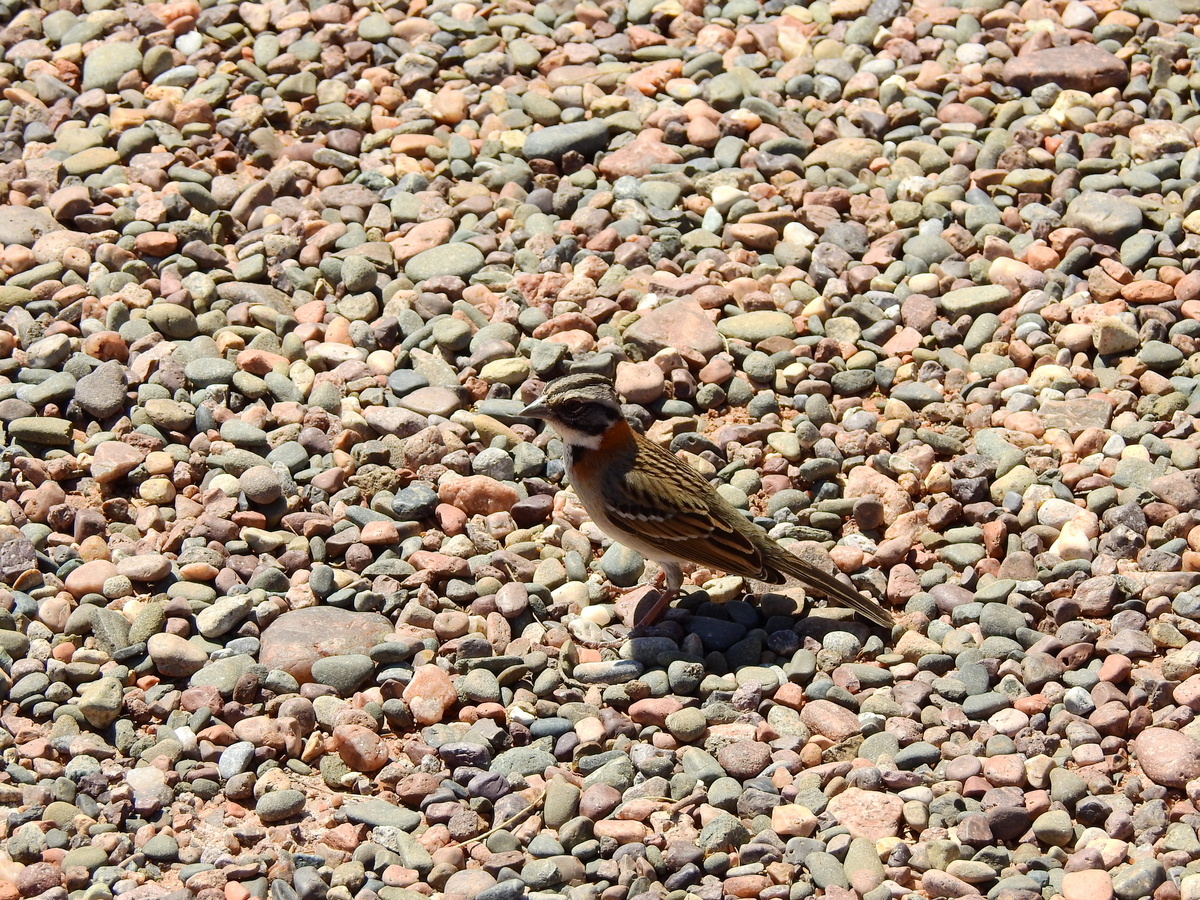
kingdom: Animalia
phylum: Chordata
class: Aves
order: Passeriformes
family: Passerellidae
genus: Zonotrichia
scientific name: Zonotrichia capensis
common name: Rufous-collared sparrow
